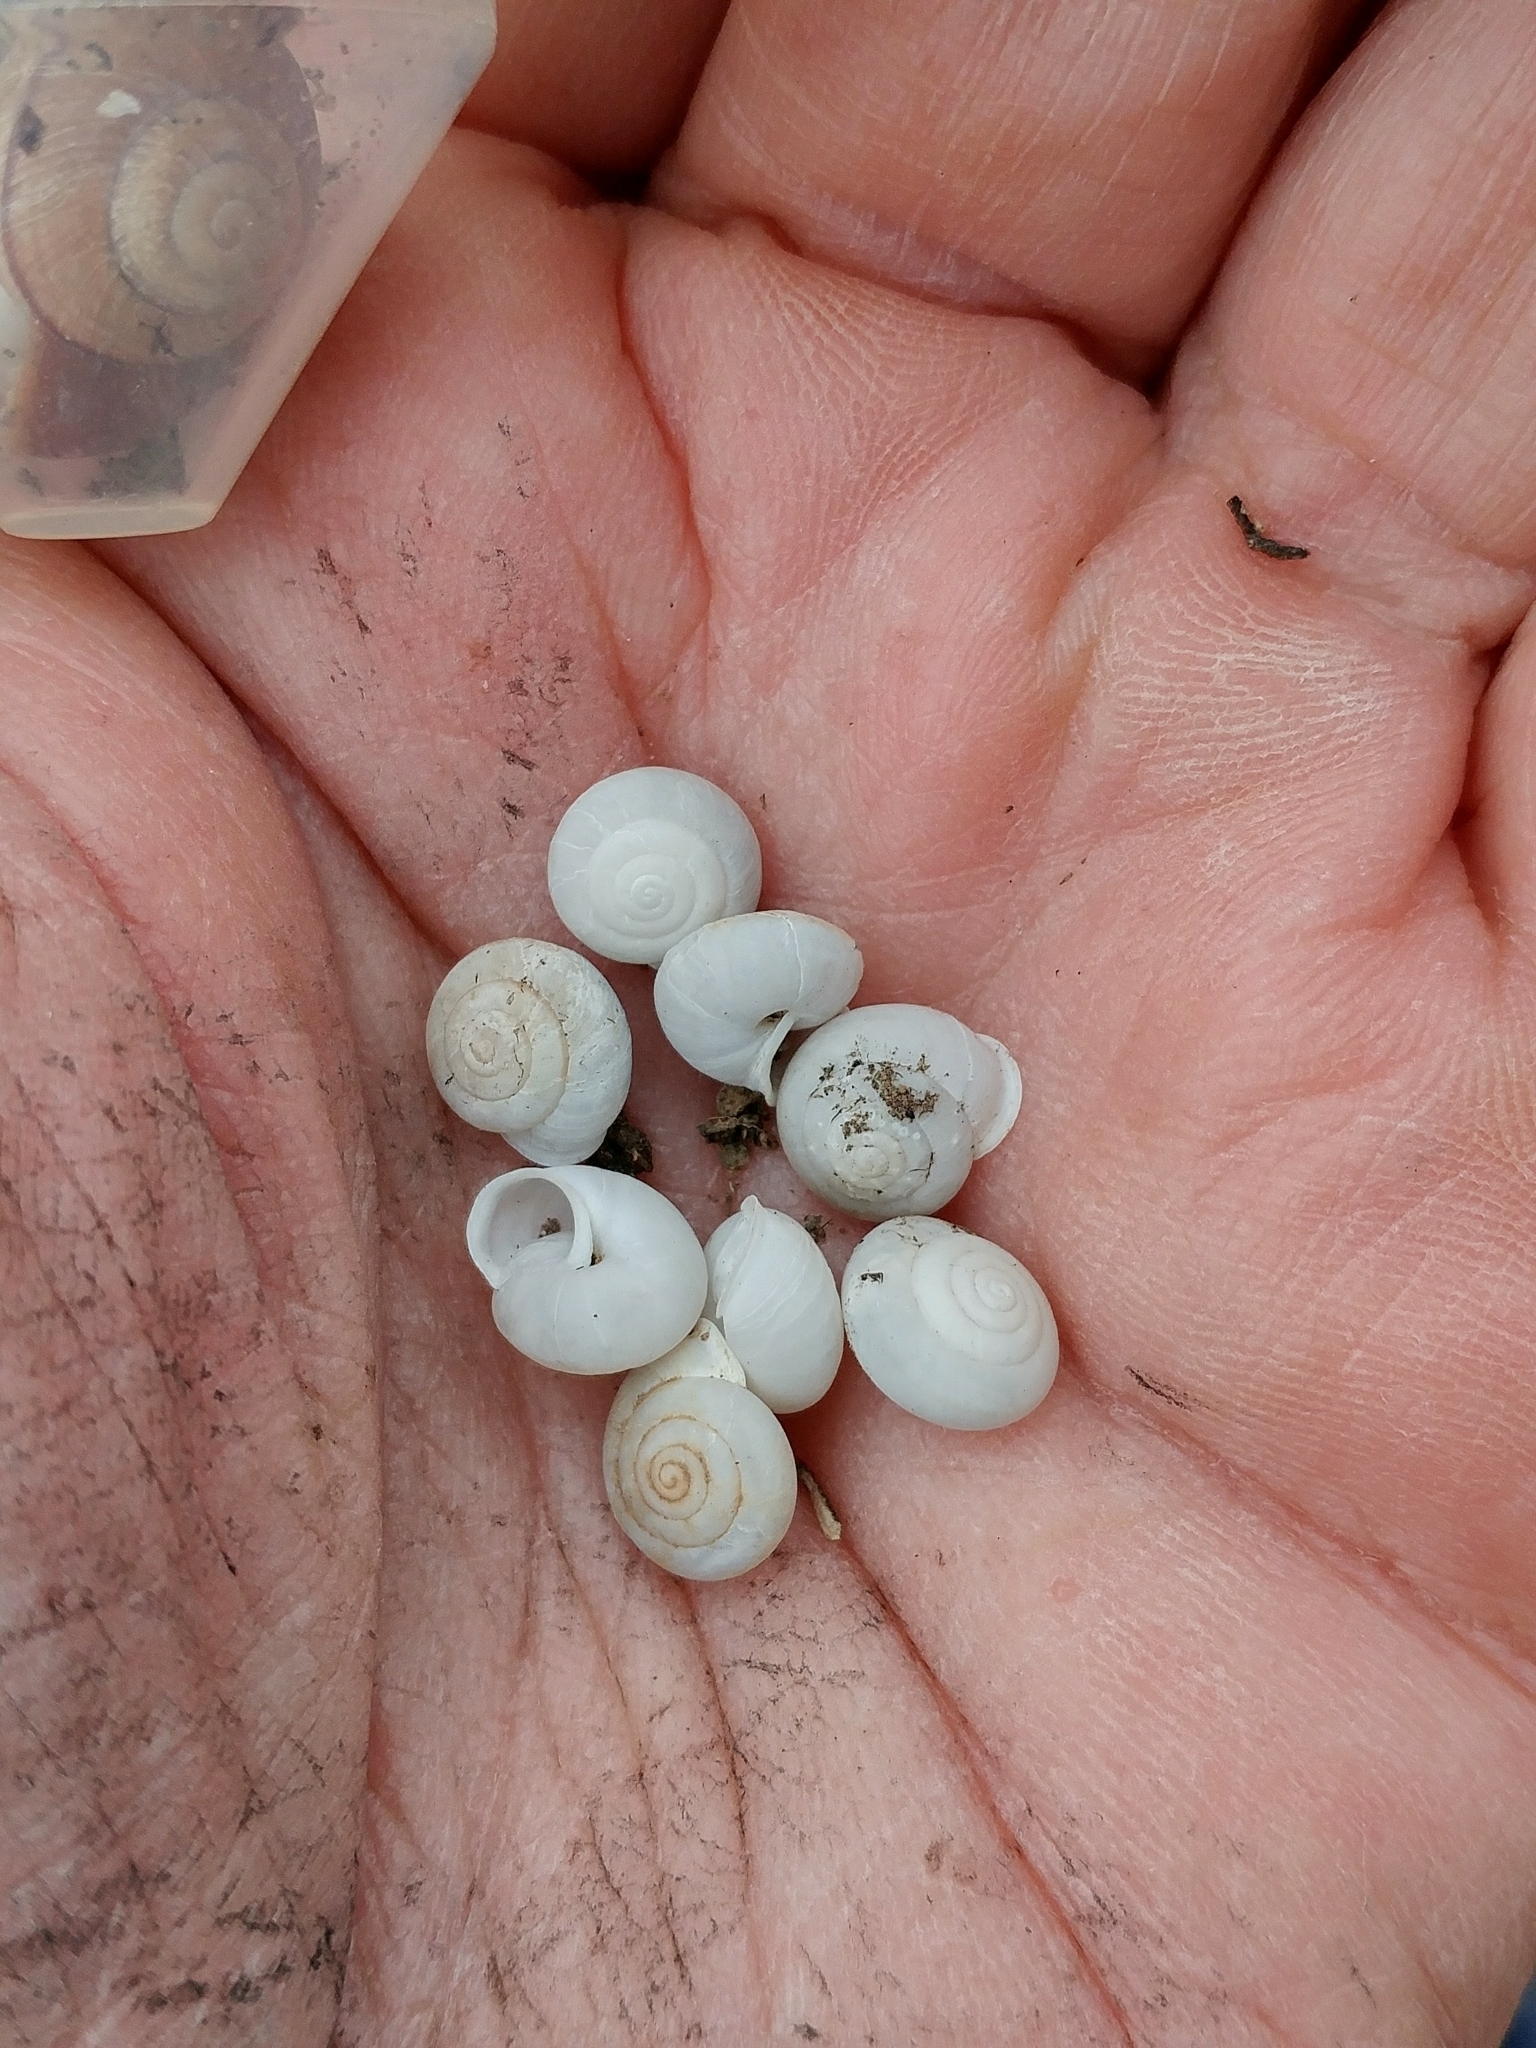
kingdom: Animalia
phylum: Mollusca
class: Gastropoda
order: Stylommatophora
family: Xanthonychidae
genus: Micrarionta
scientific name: Micrarionta gabbii
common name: Gabb's snail
